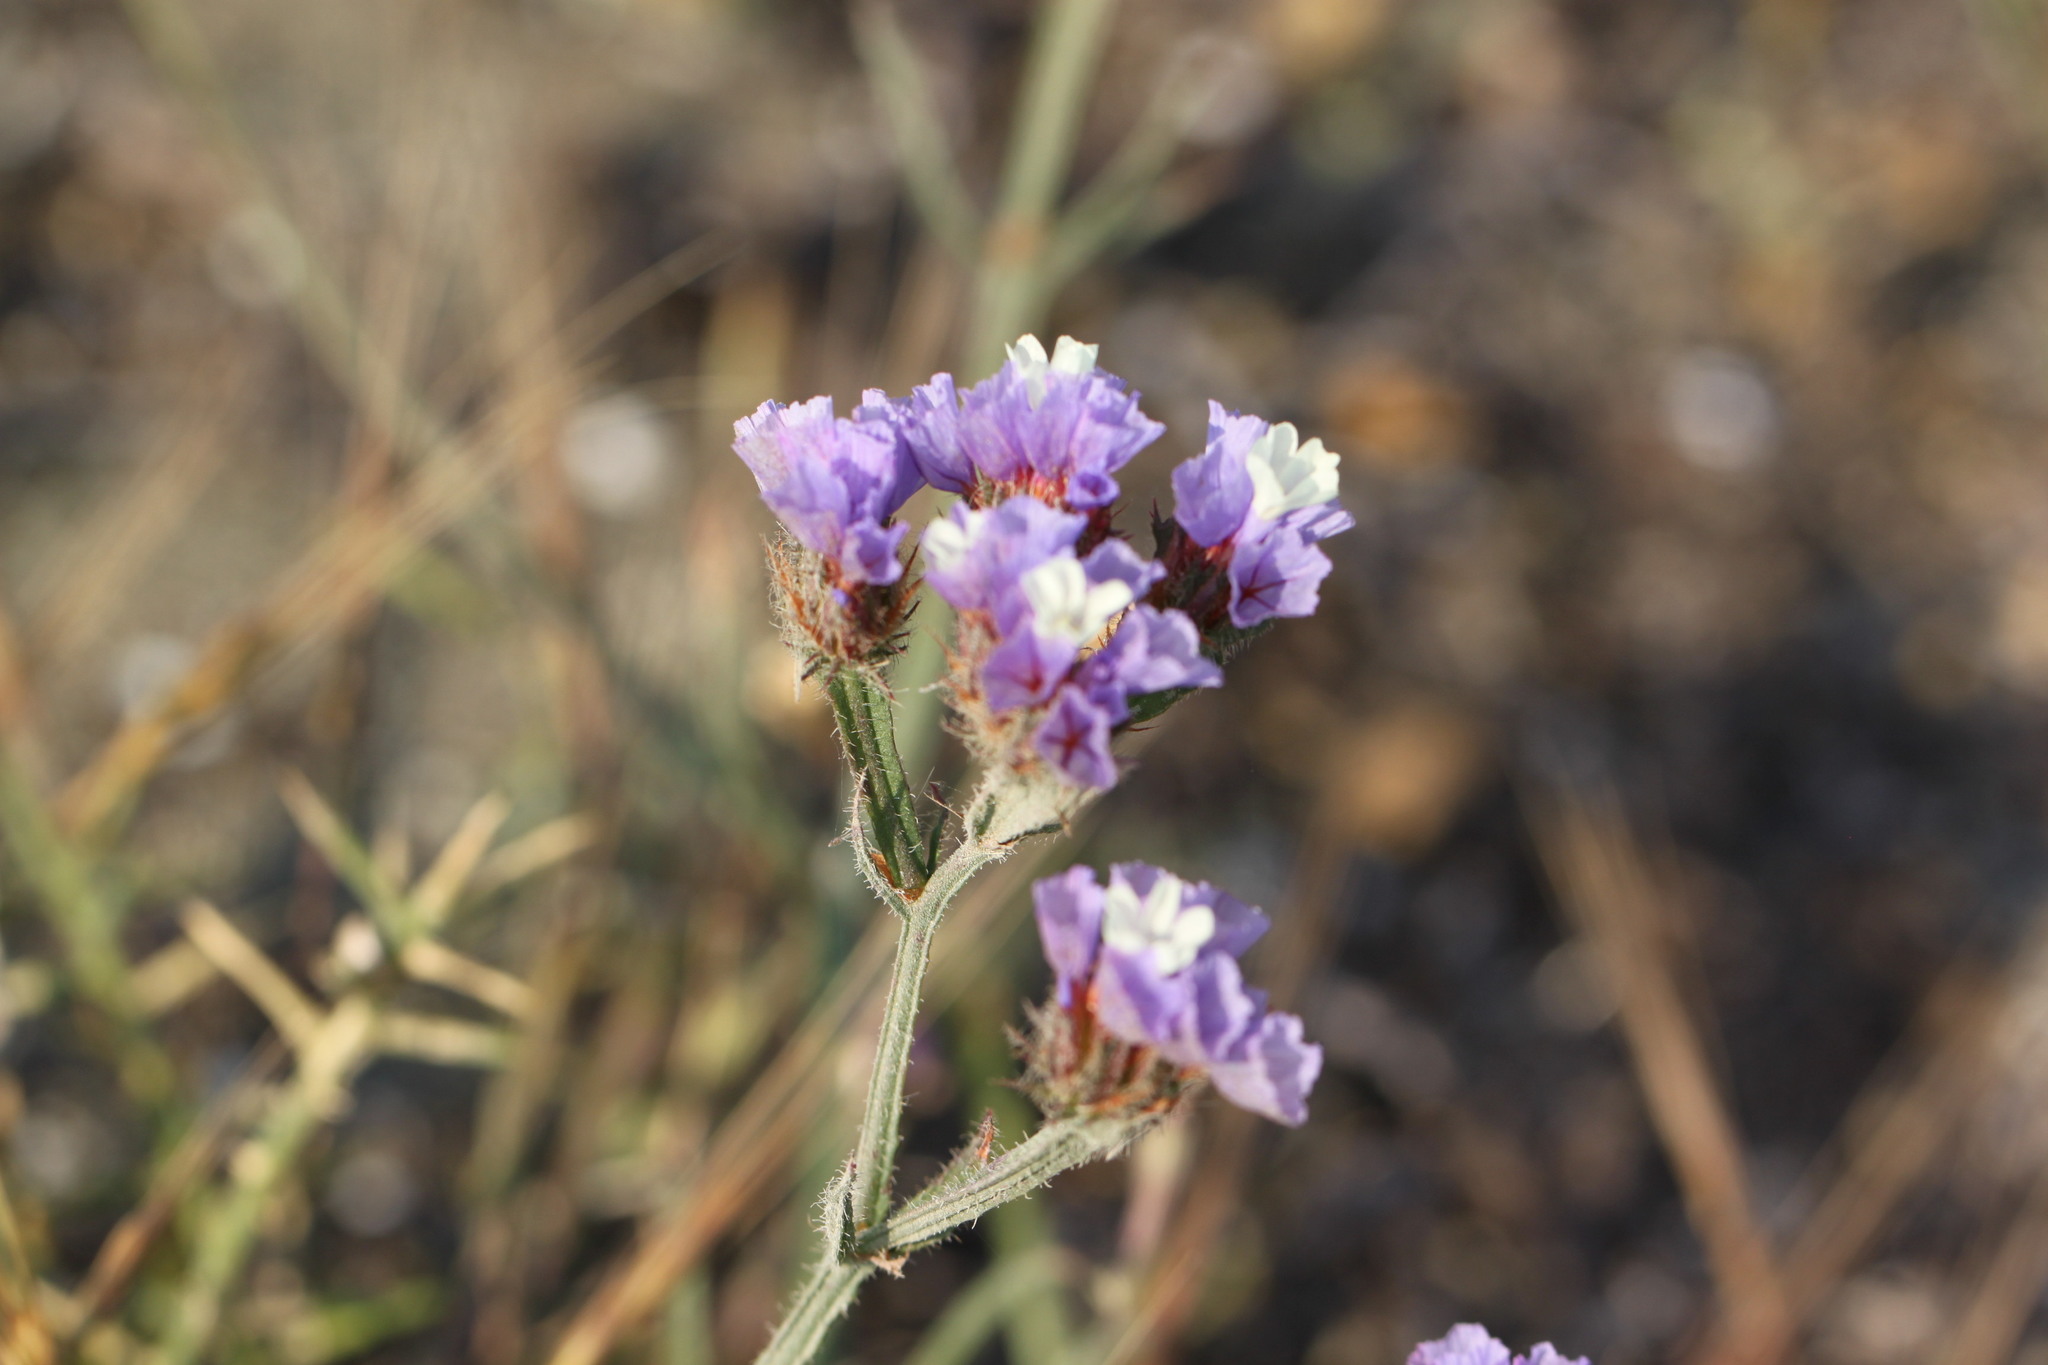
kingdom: Plantae
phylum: Tracheophyta
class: Magnoliopsida
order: Caryophyllales
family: Plumbaginaceae
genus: Limonium
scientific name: Limonium sinuatum
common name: Statice
